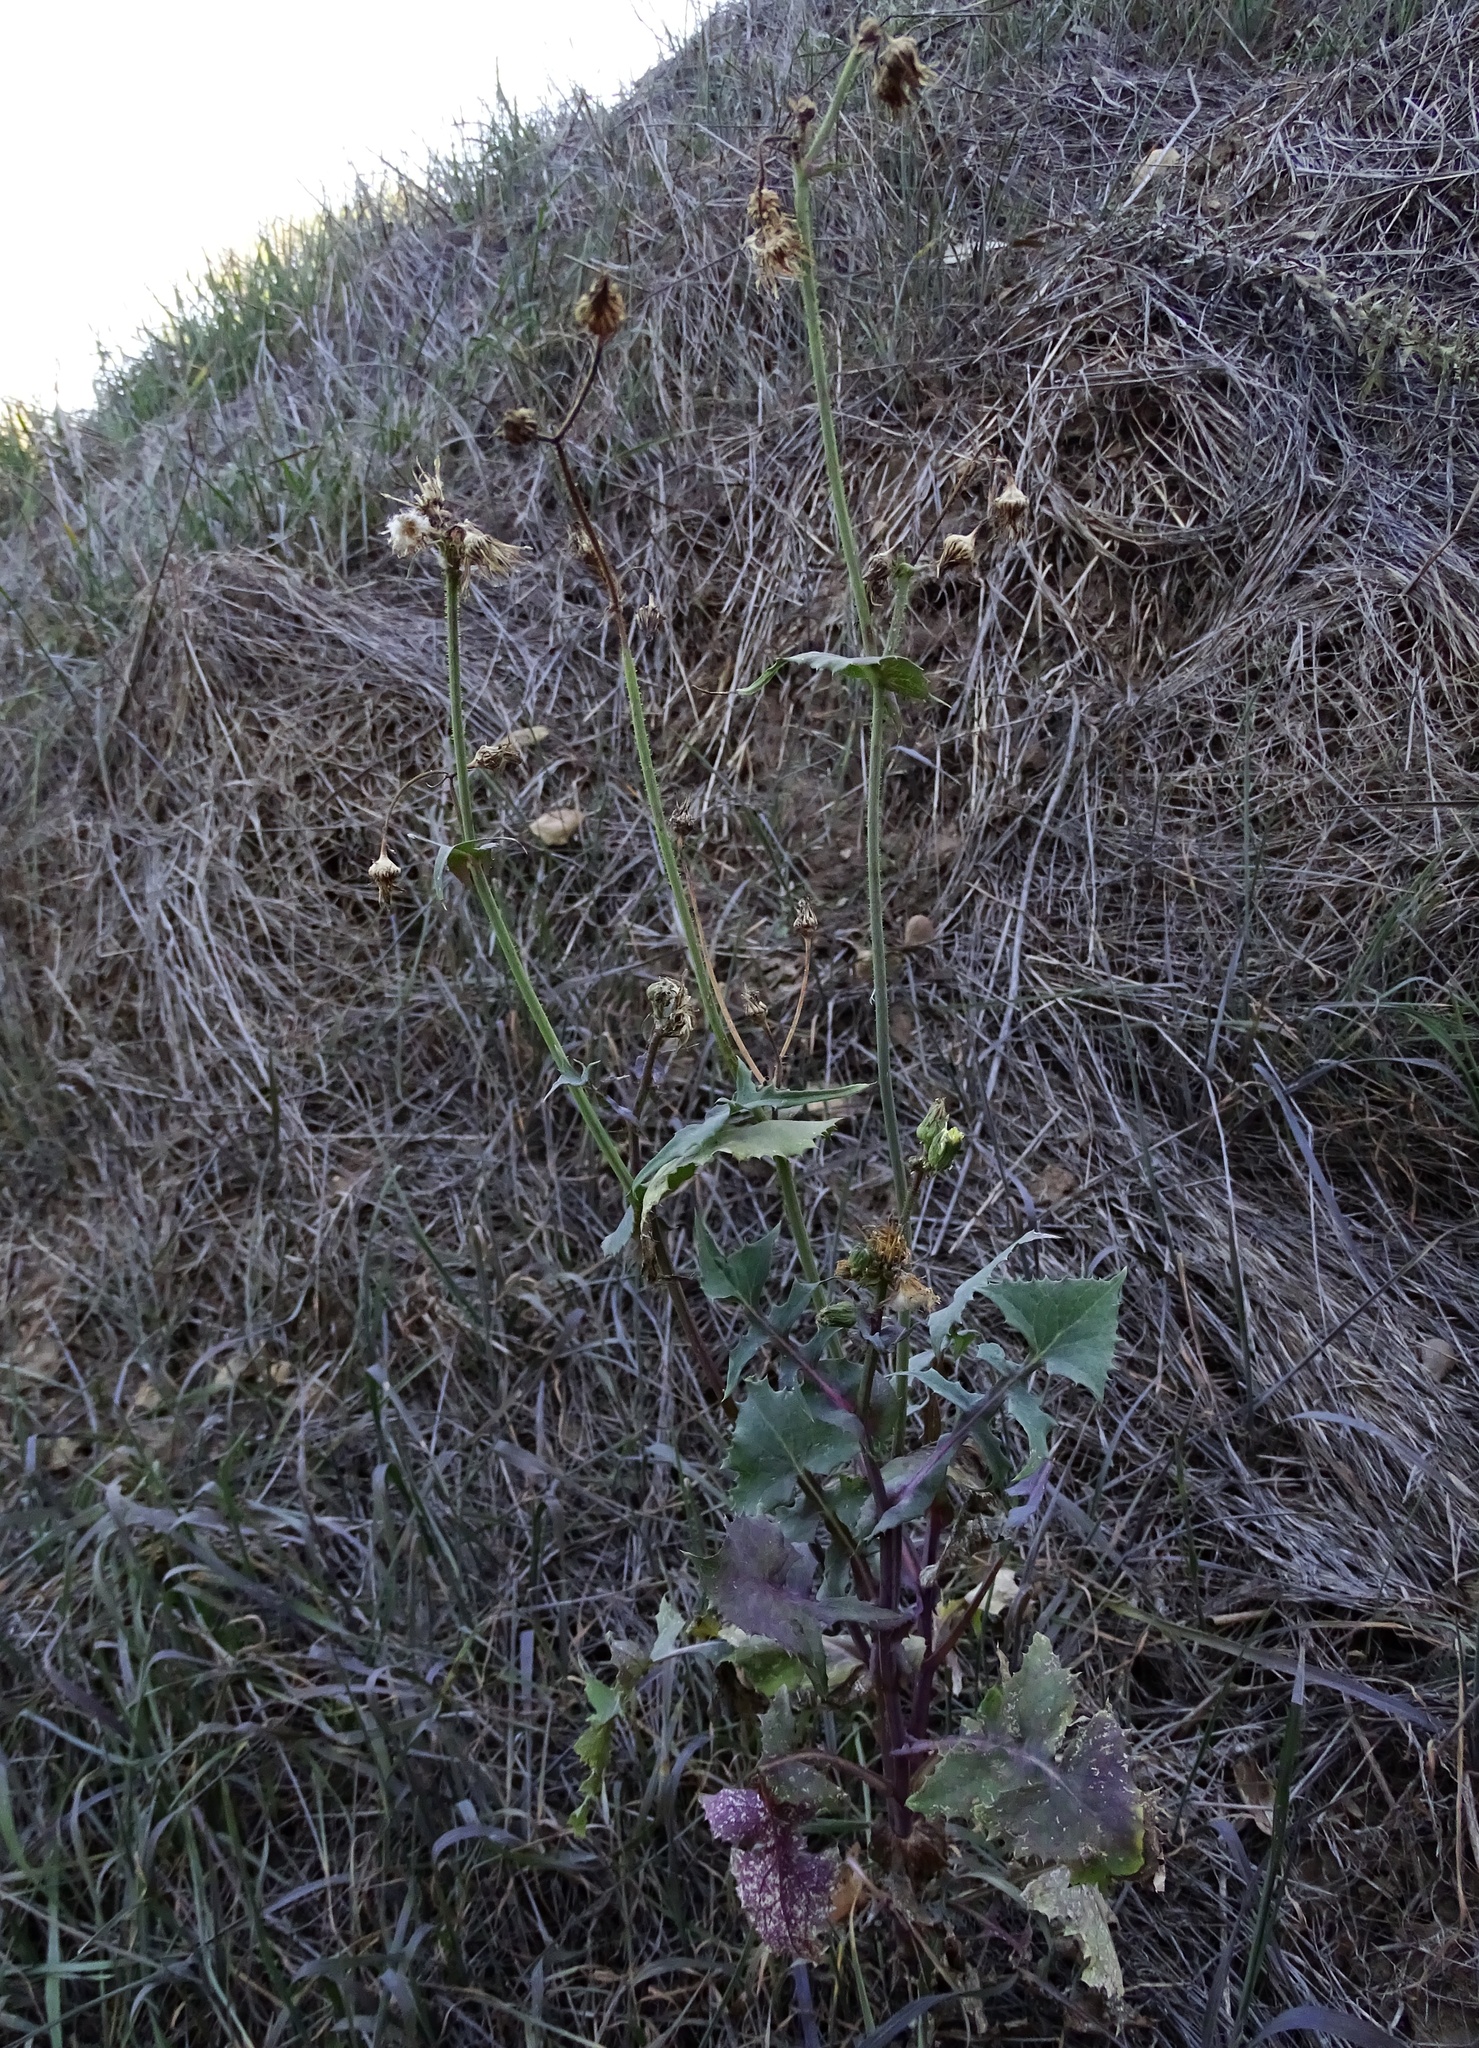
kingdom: Plantae
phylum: Tracheophyta
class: Magnoliopsida
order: Asterales
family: Asteraceae
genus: Sonchus
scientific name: Sonchus oleraceus
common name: Common sowthistle
